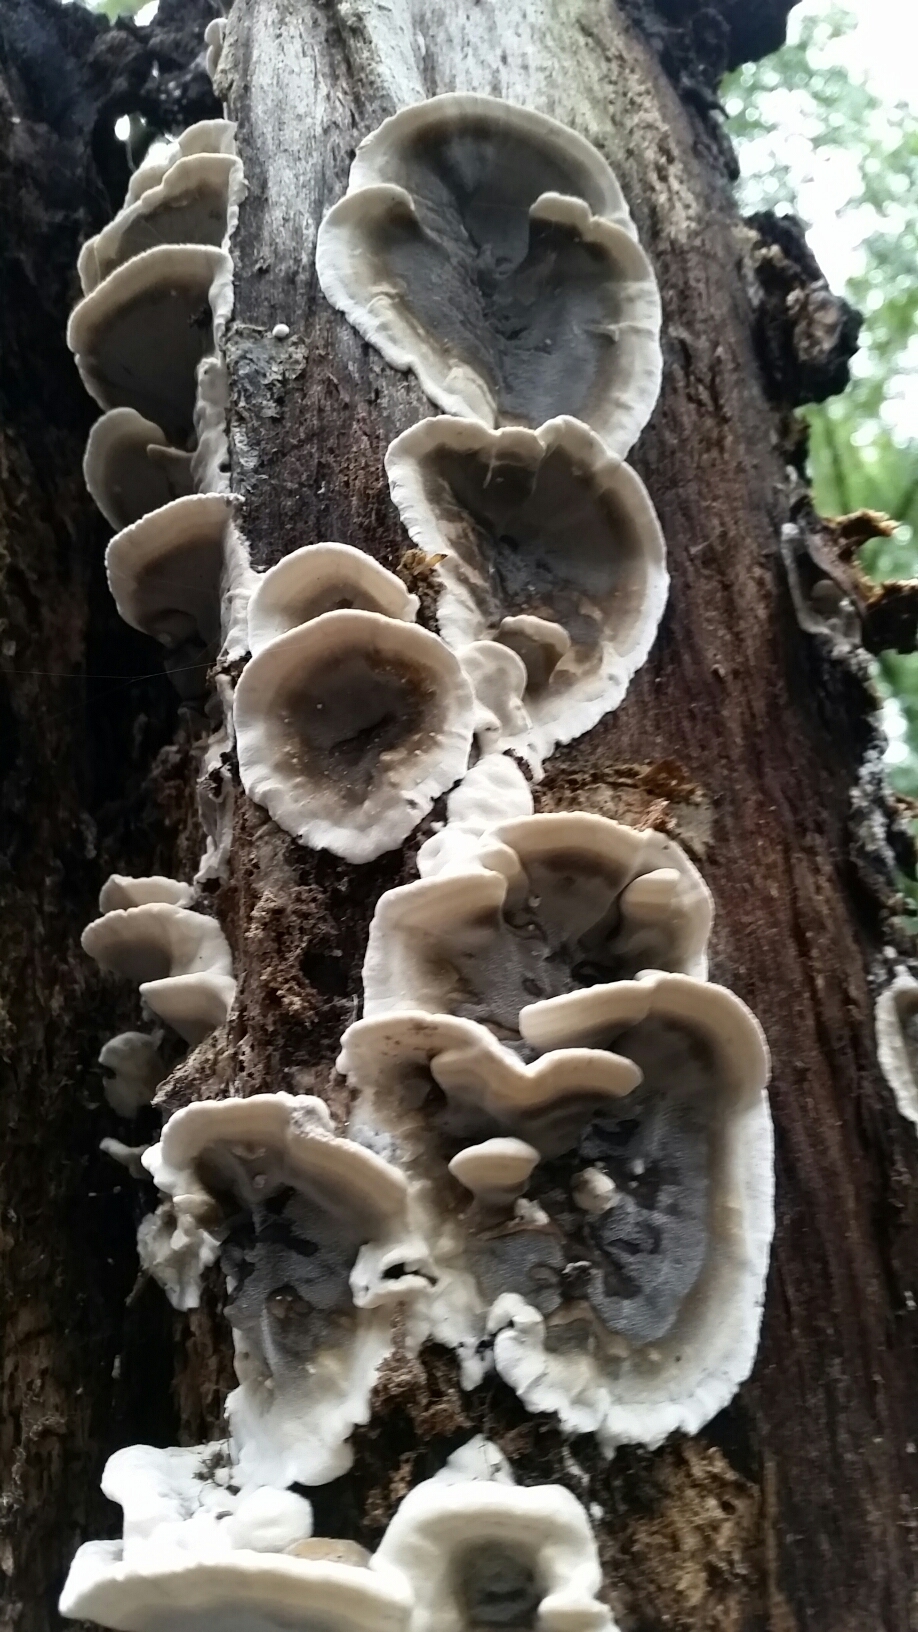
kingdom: Fungi
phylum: Basidiomycota
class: Agaricomycetes
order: Polyporales
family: Phanerochaetaceae
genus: Bjerkandera
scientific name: Bjerkandera adusta
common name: Smoky bracket
